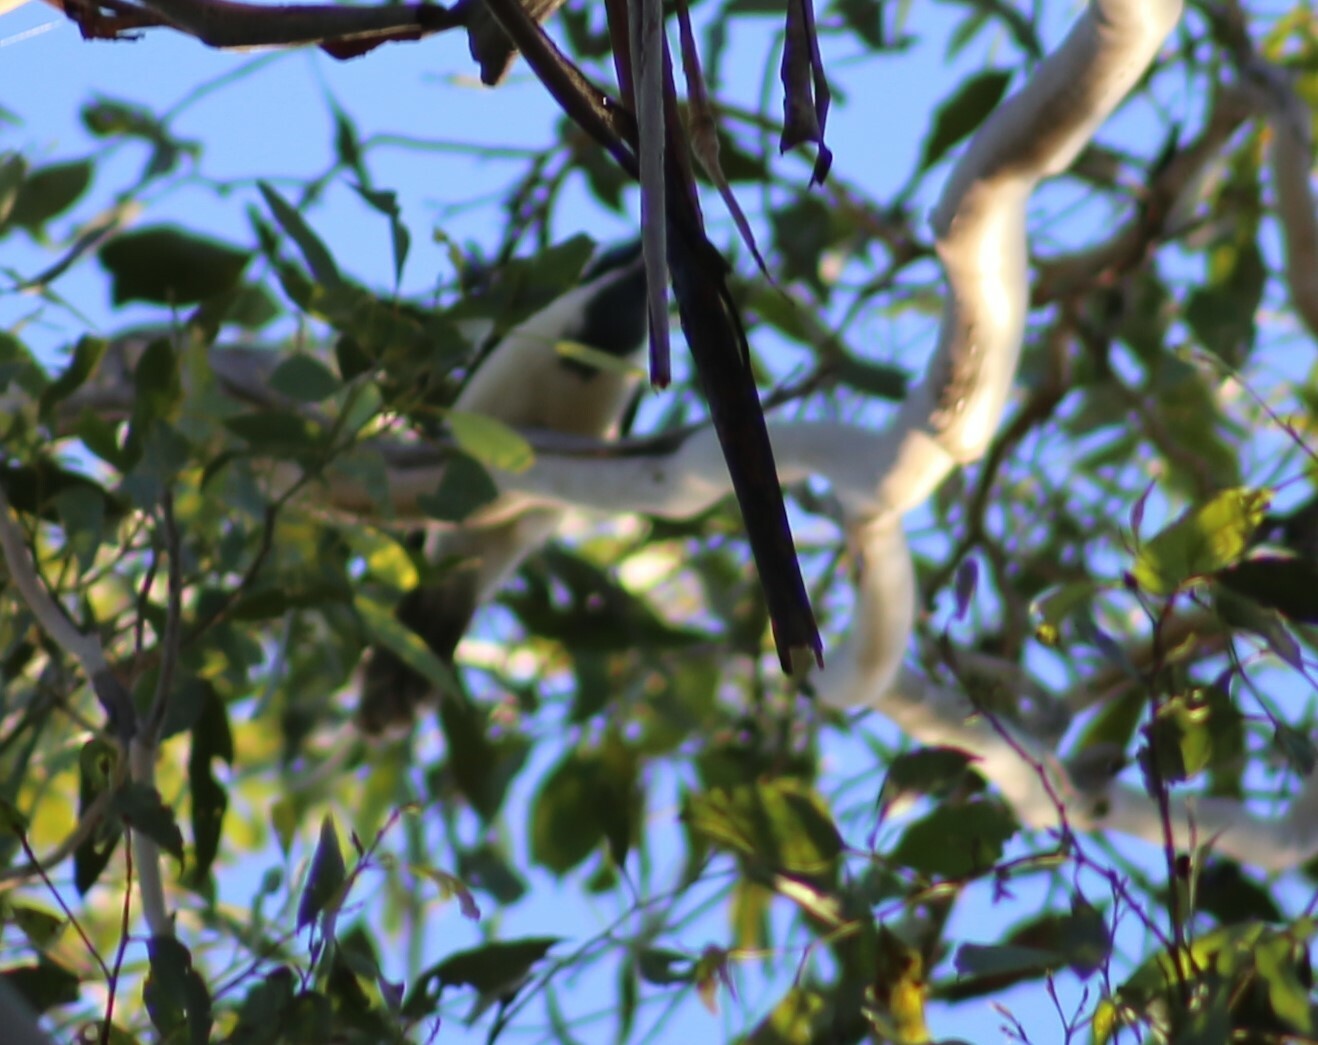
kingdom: Animalia
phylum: Chordata
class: Aves
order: Passeriformes
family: Meliphagidae
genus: Entomyzon
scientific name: Entomyzon cyanotis
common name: Blue-faced honeyeater
